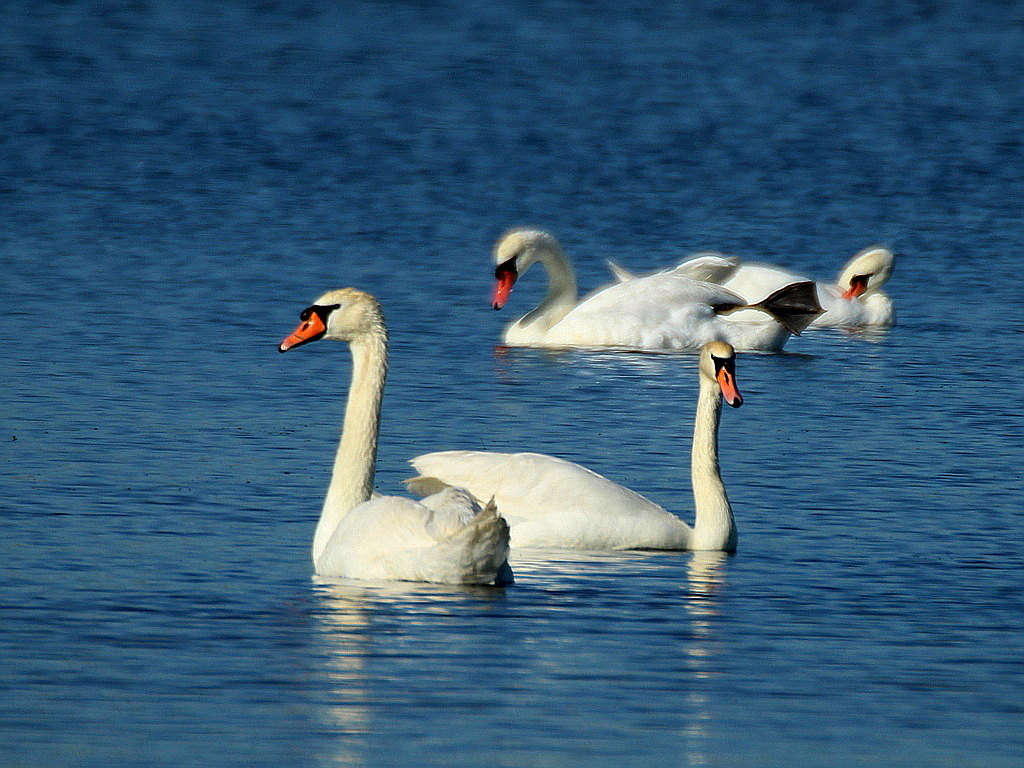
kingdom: Animalia
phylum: Chordata
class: Aves
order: Anseriformes
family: Anatidae
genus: Cygnus
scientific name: Cygnus olor
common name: Mute swan
